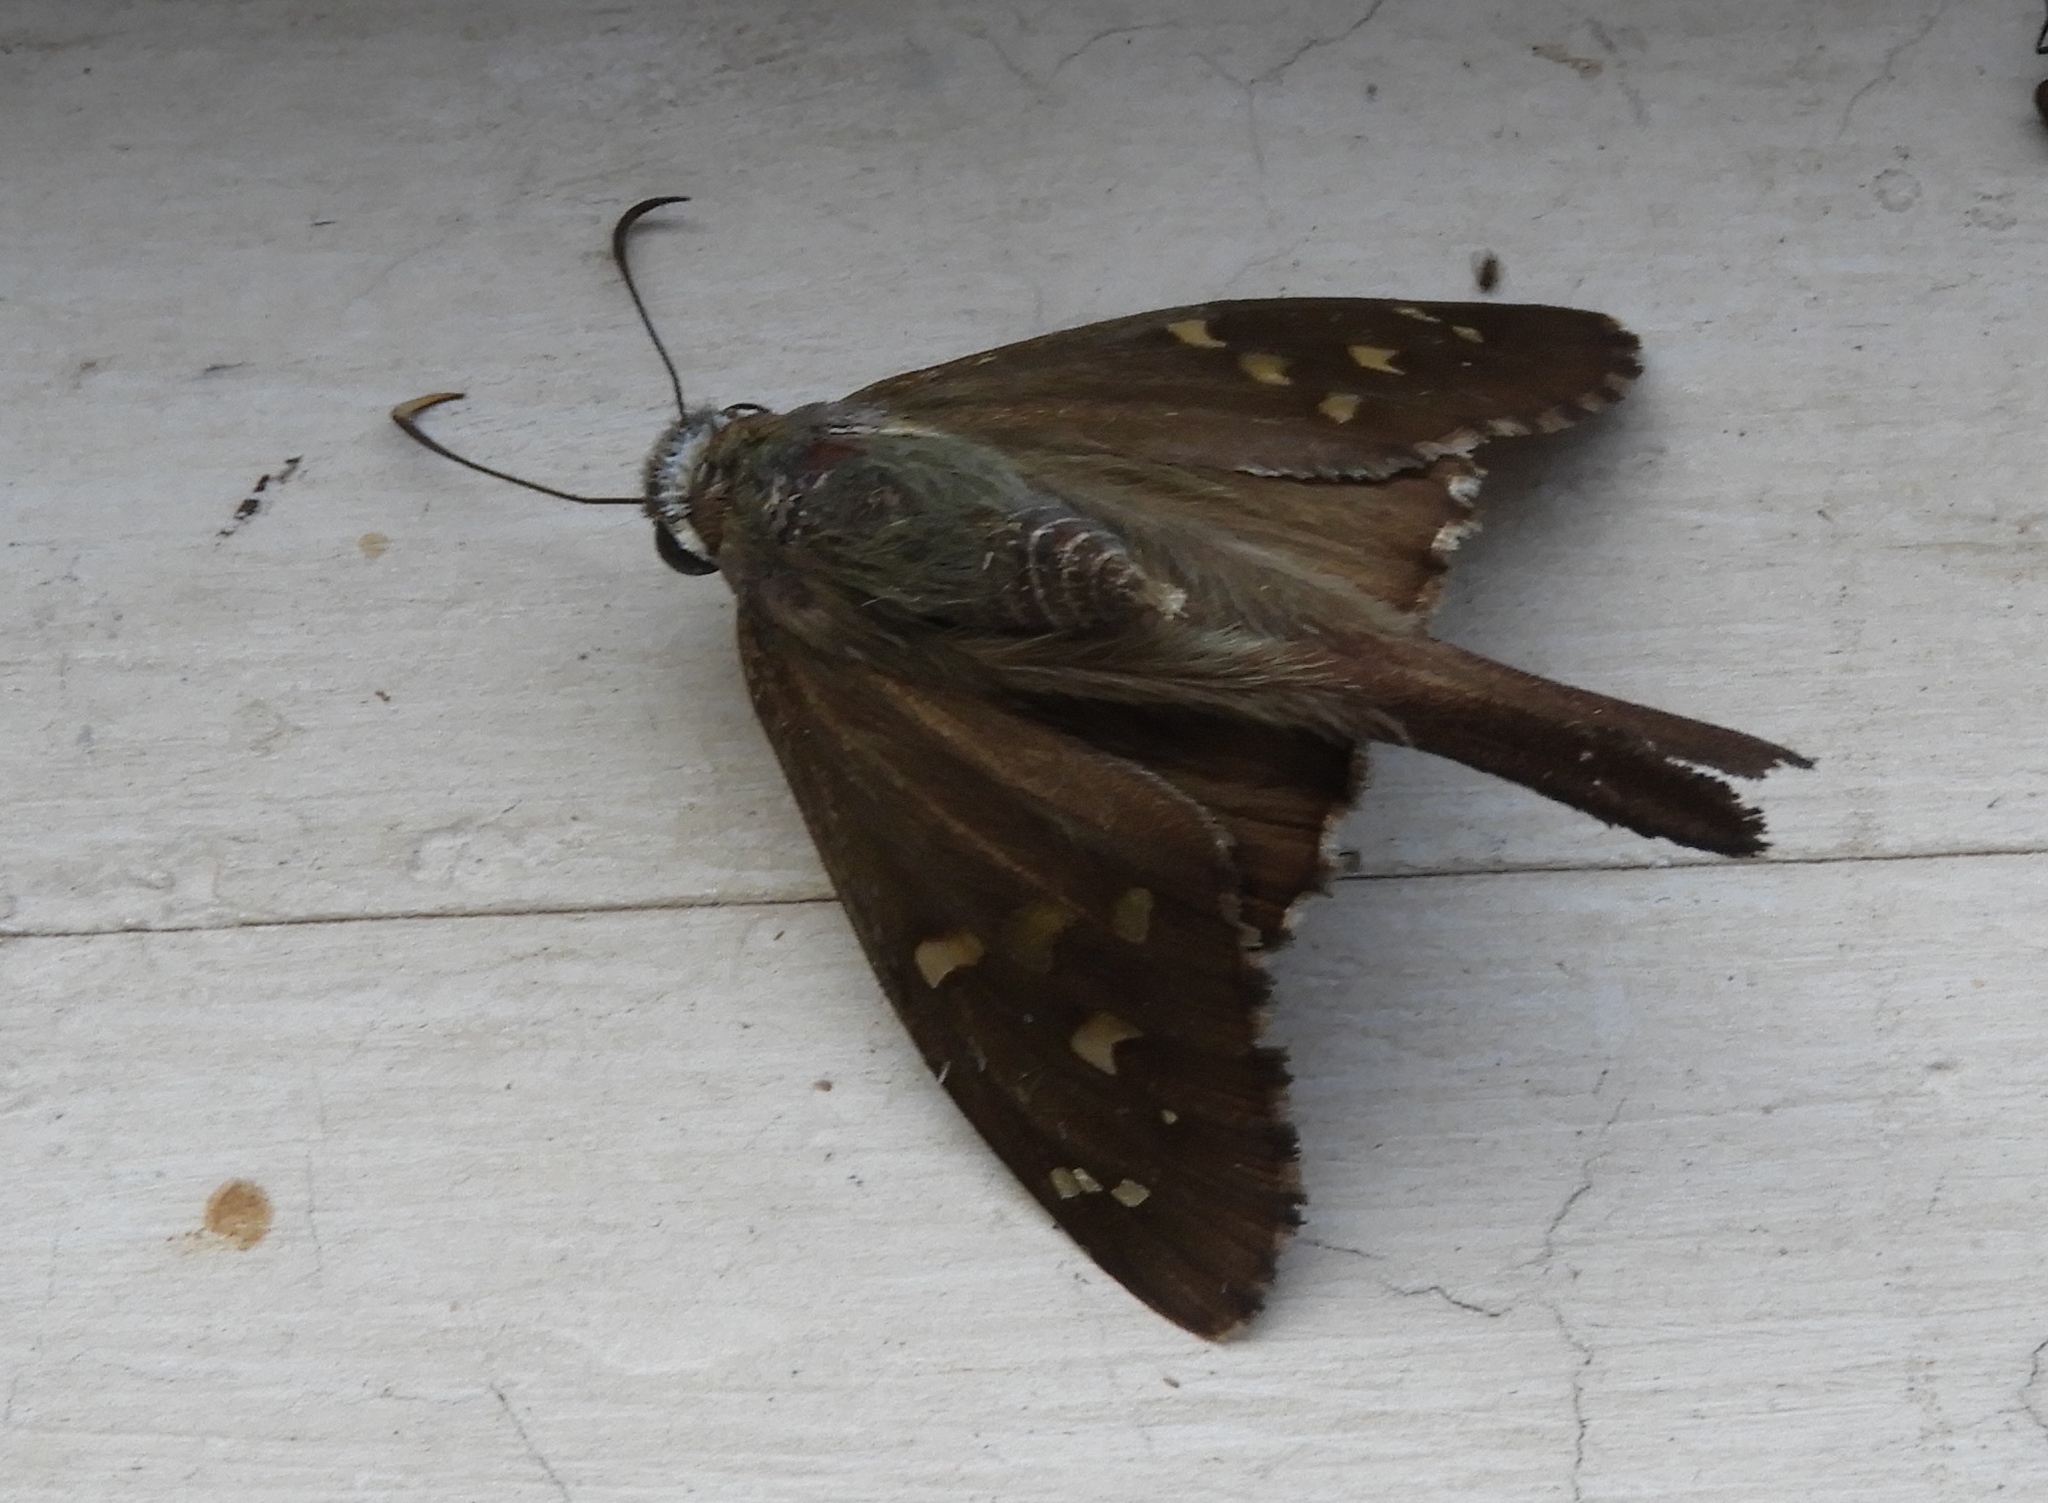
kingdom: Animalia
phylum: Arthropoda
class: Insecta
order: Lepidoptera
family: Hesperiidae
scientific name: Hesperiidae
